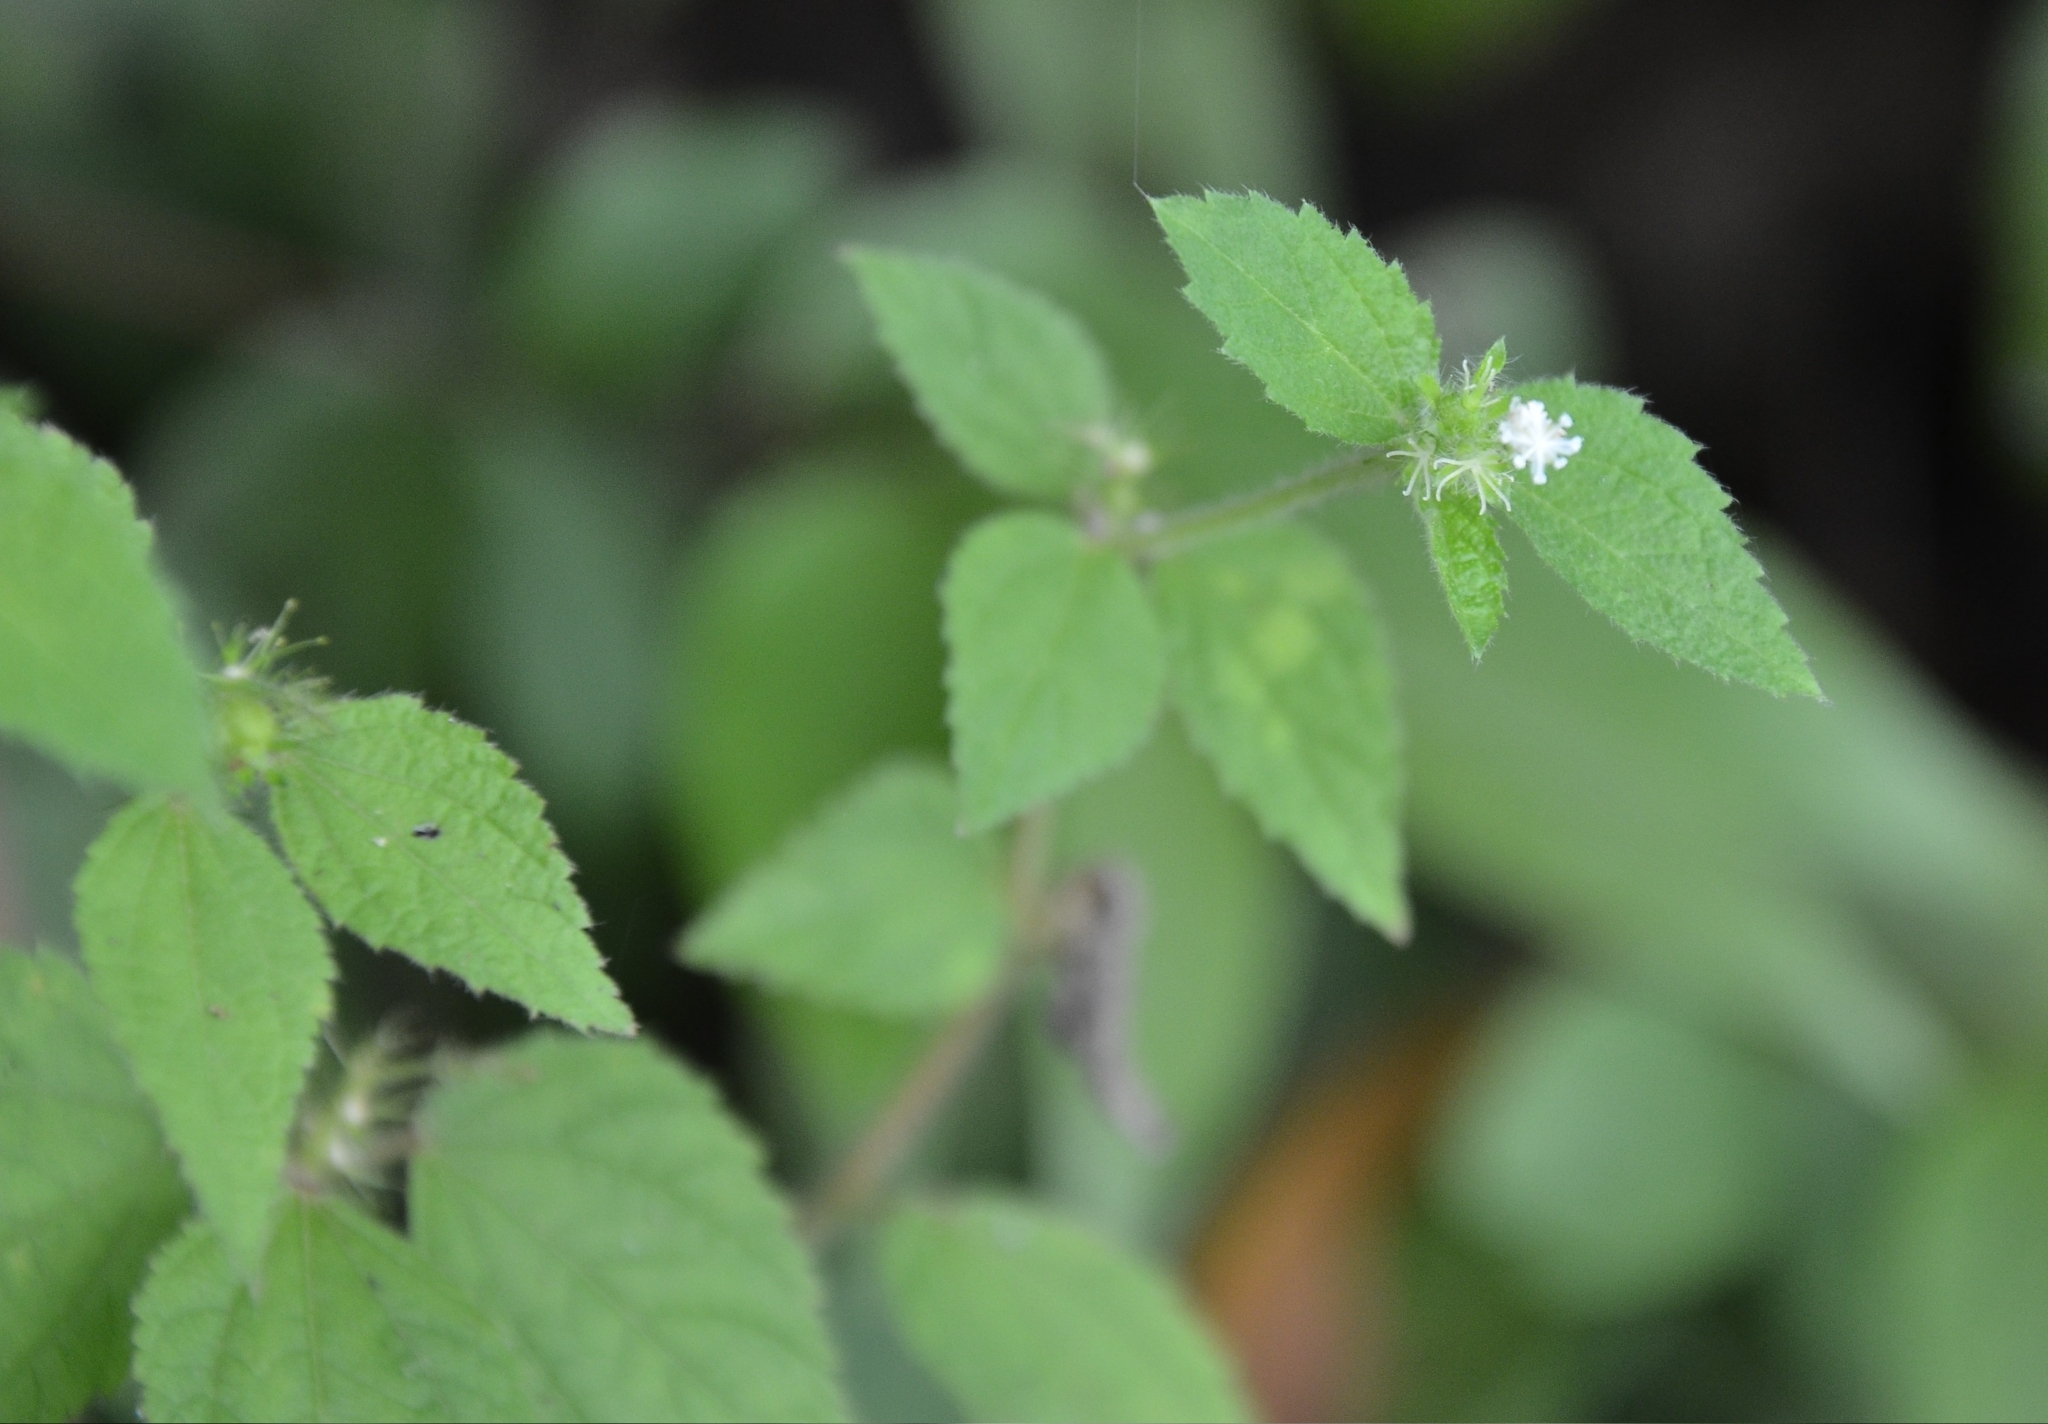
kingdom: Plantae
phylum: Tracheophyta
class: Magnoliopsida
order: Malpighiales
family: Euphorbiaceae
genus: Croton
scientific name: Croton hirtus
